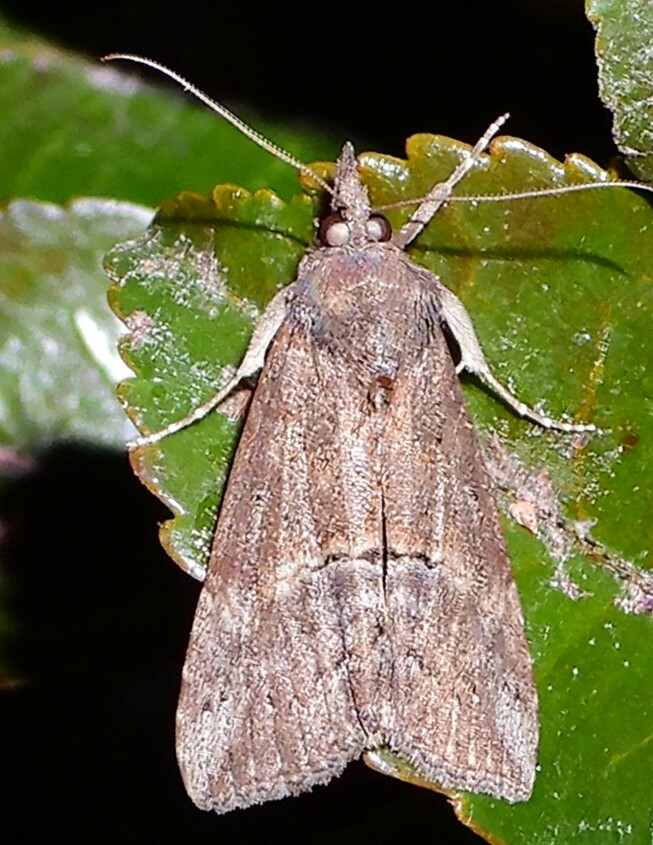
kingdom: Animalia
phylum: Arthropoda
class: Insecta
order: Lepidoptera
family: Erebidae
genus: Hypena
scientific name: Hypena scabra
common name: Green cloverworm
